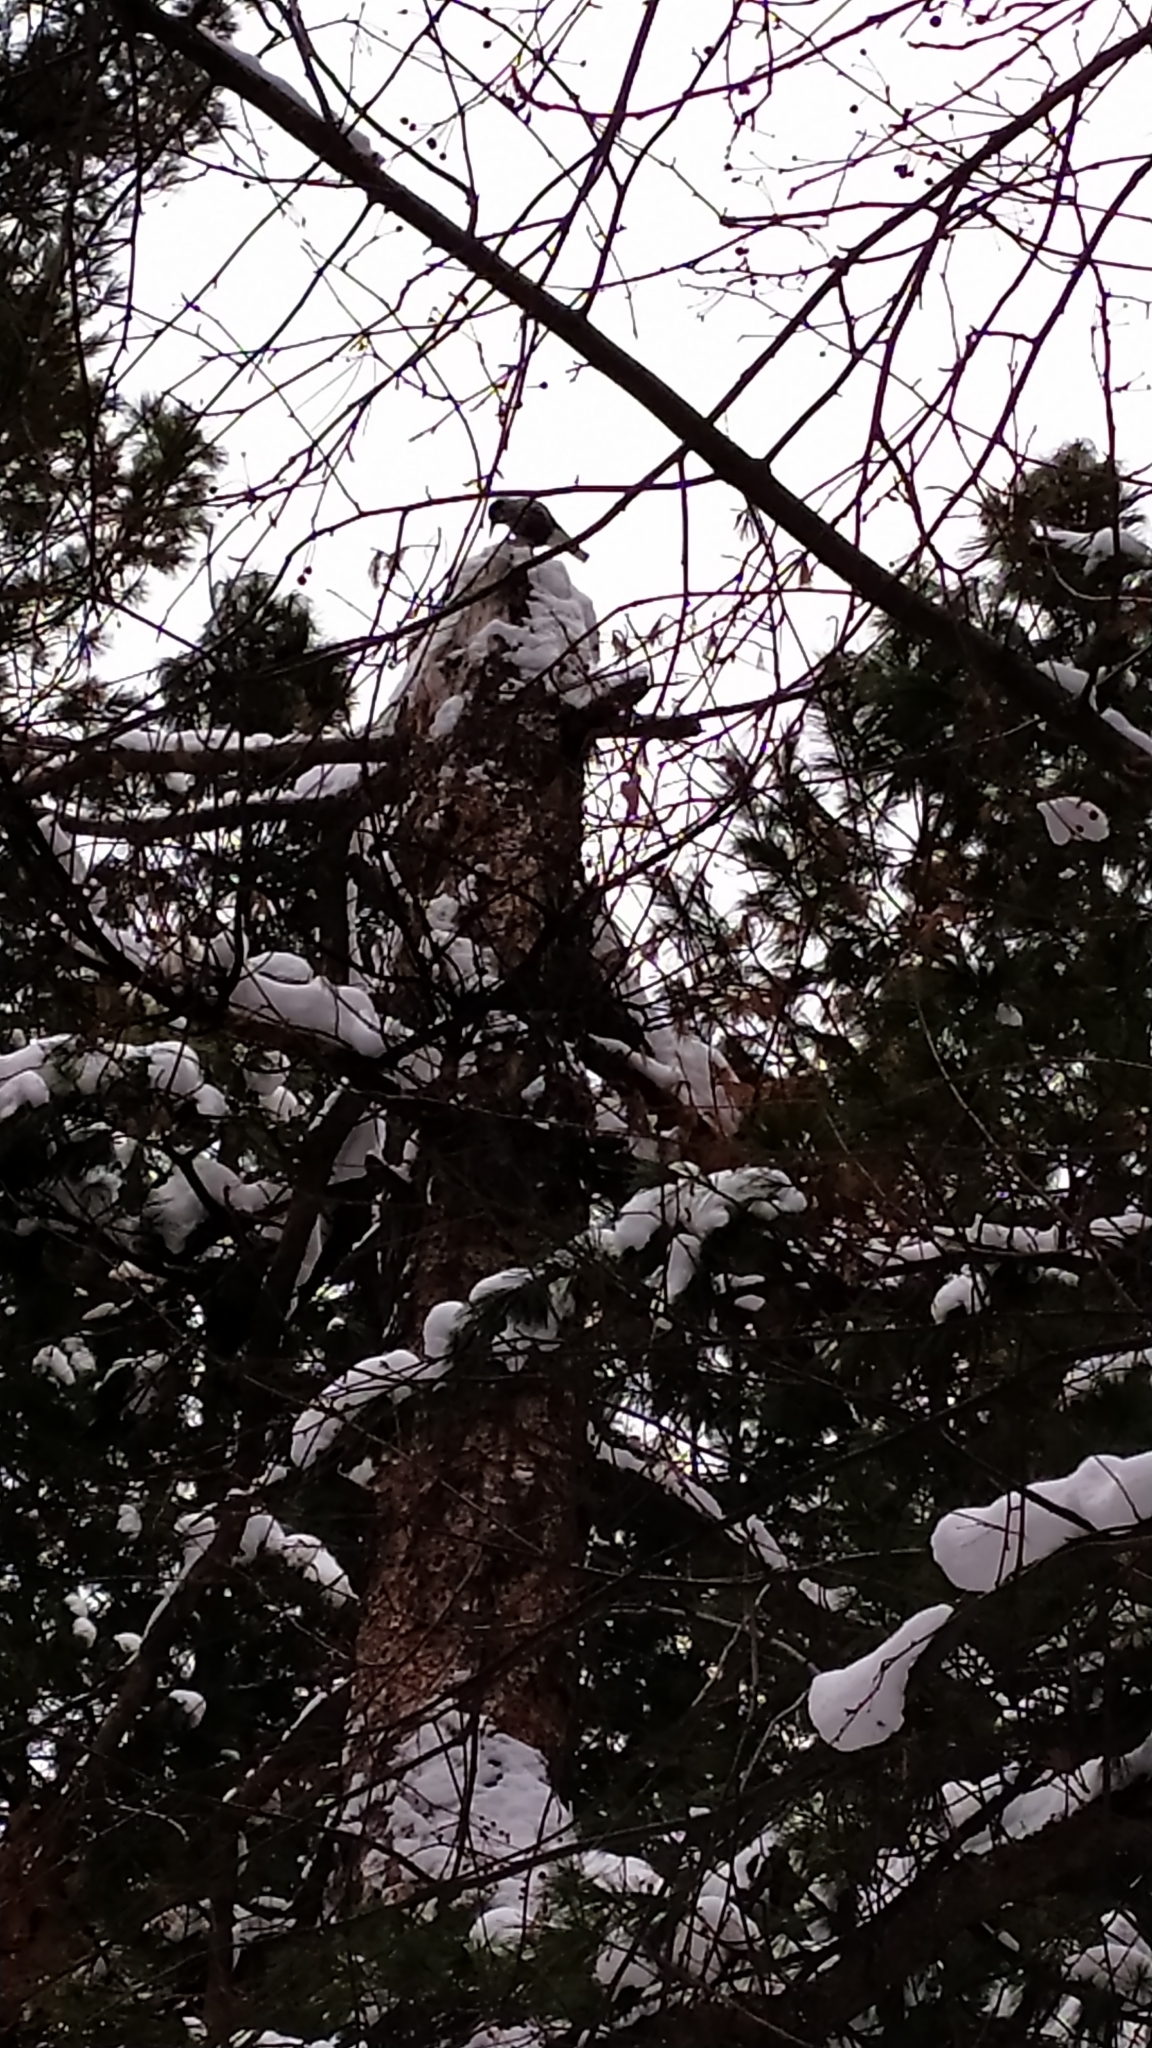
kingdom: Animalia
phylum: Chordata
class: Aves
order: Passeriformes
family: Corvidae
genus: Nucifraga
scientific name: Nucifraga caryocatactes
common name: Spotted nutcracker
